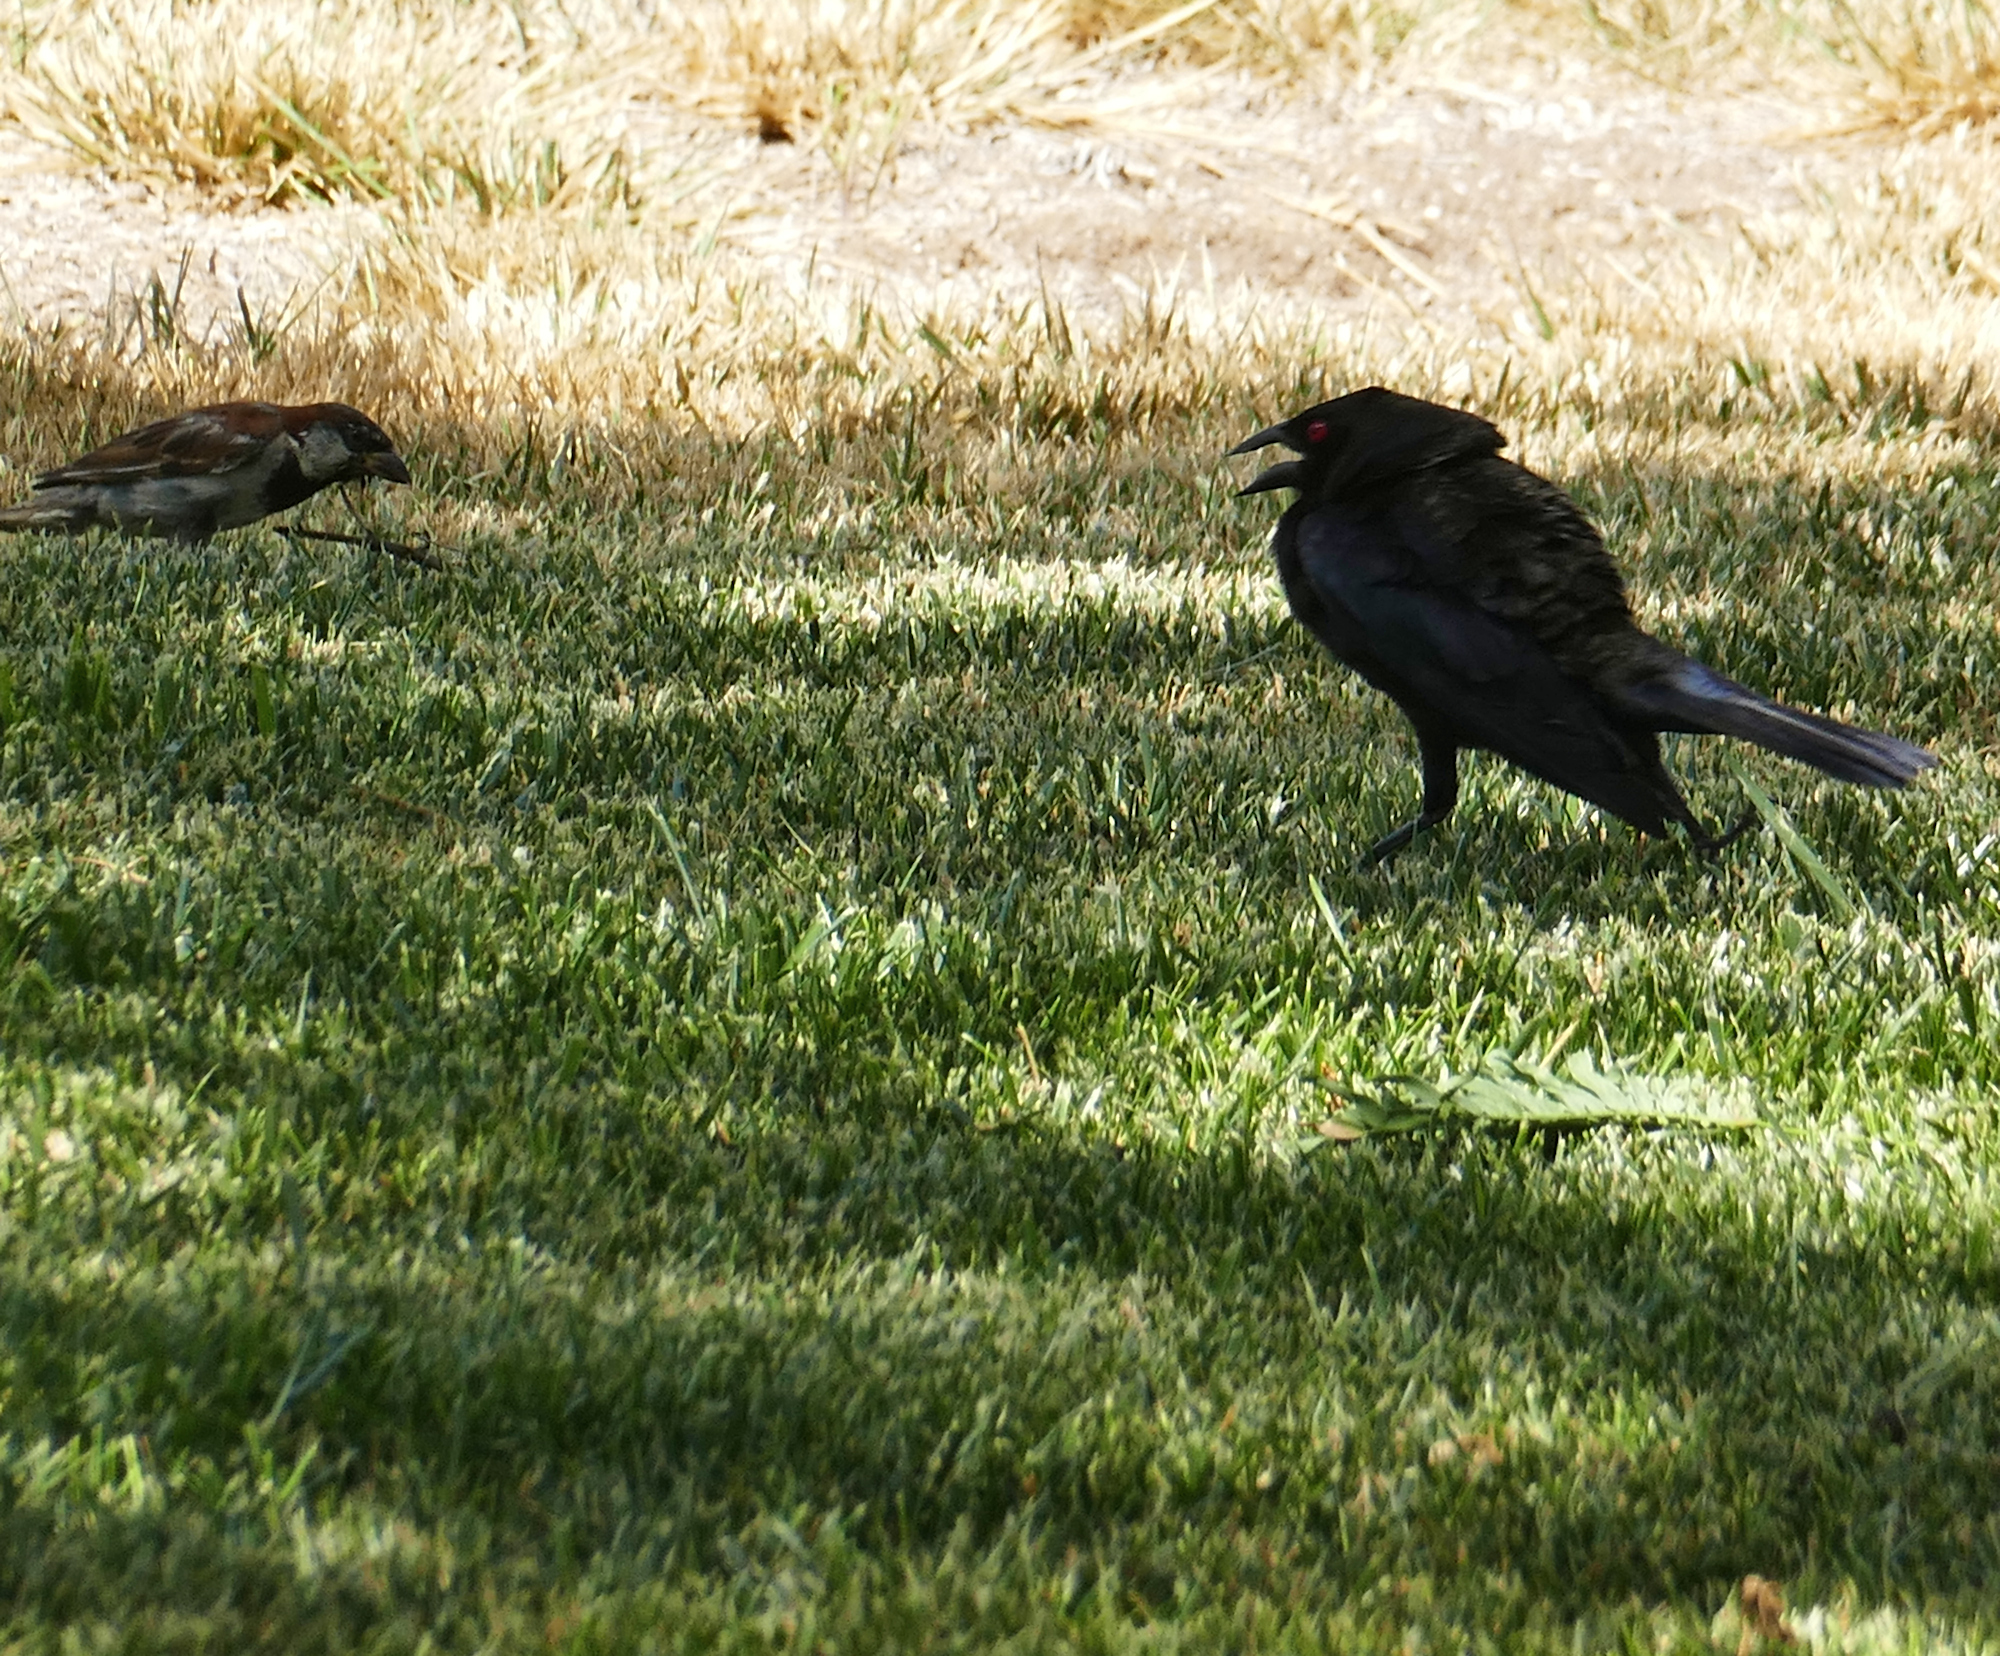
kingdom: Animalia
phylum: Chordata
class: Aves
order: Passeriformes
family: Icteridae
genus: Molothrus
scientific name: Molothrus aeneus
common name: Bronzed cowbird
